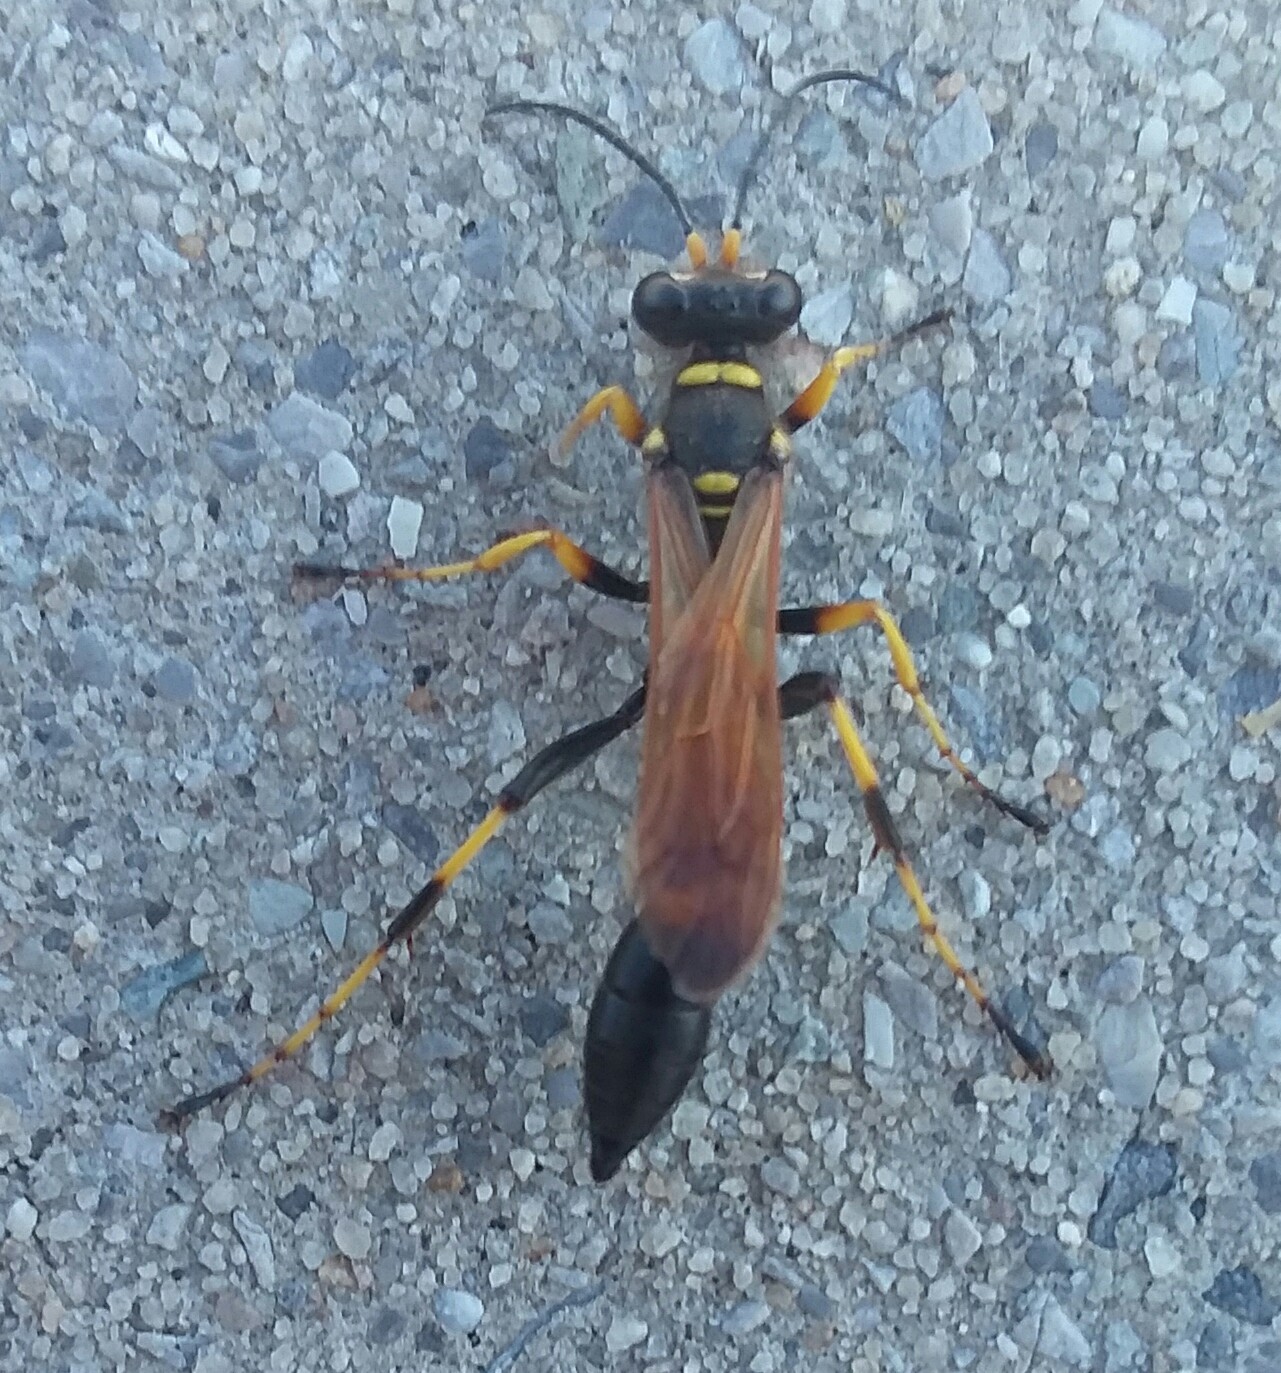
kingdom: Animalia
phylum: Arthropoda
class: Insecta
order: Hymenoptera
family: Sphecidae
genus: Sceliphron
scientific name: Sceliphron caementarium
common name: Mud dauber
